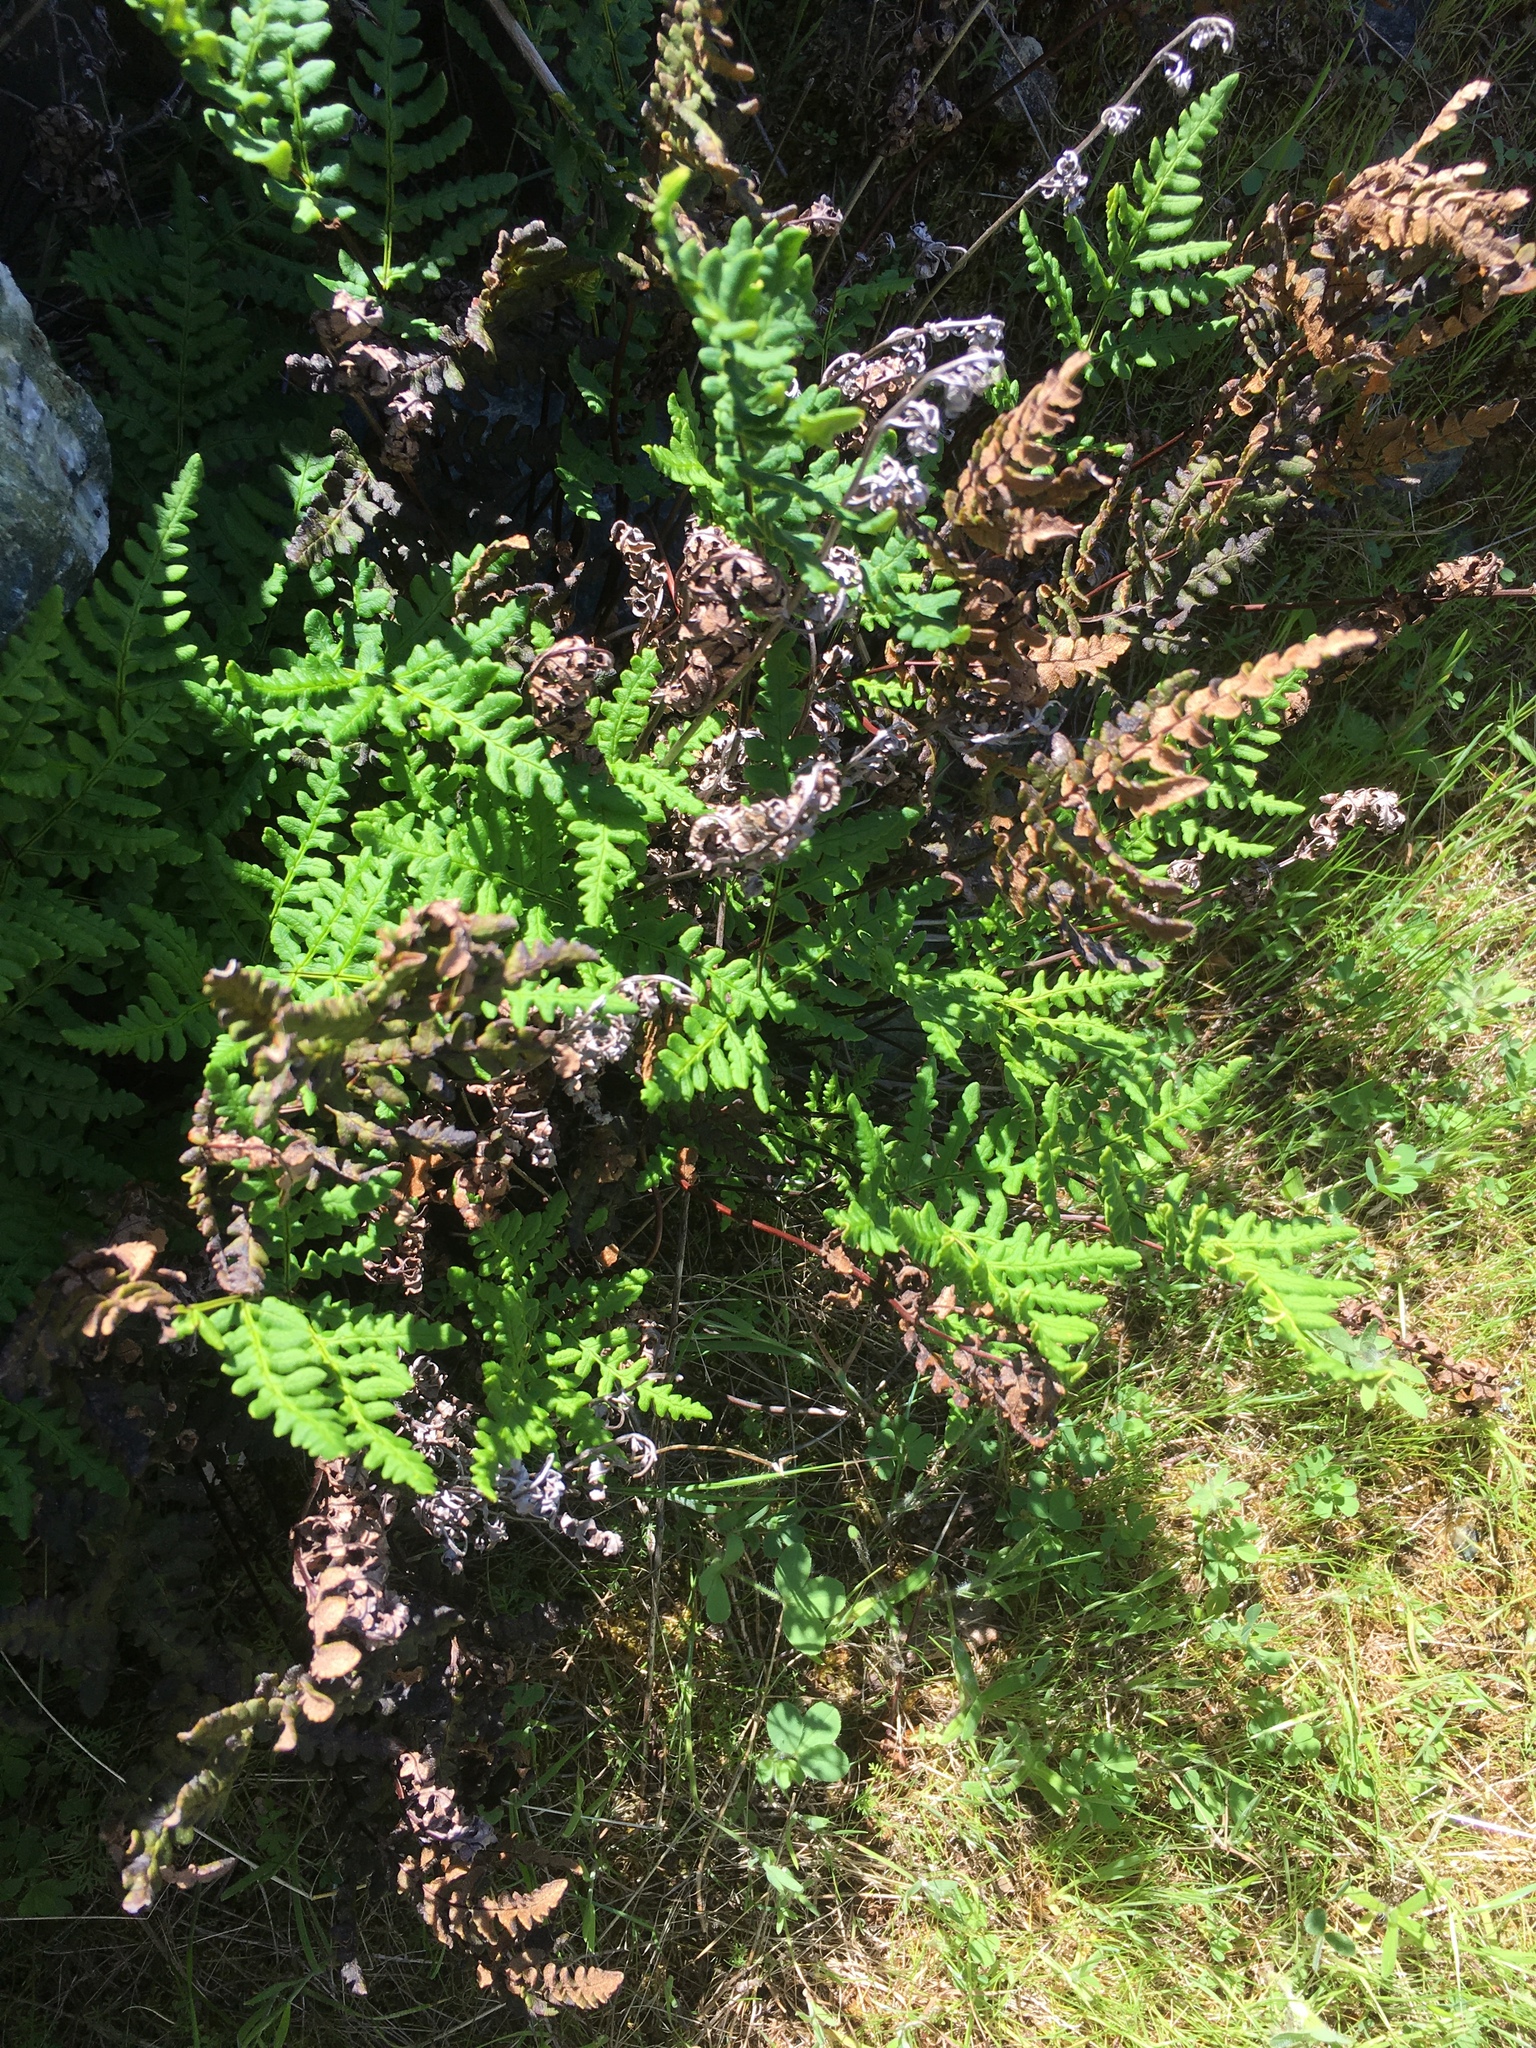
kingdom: Plantae
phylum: Tracheophyta
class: Polypodiopsida
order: Polypodiales
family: Pteridaceae
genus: Pentagramma
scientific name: Pentagramma triangularis
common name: Gold fern
